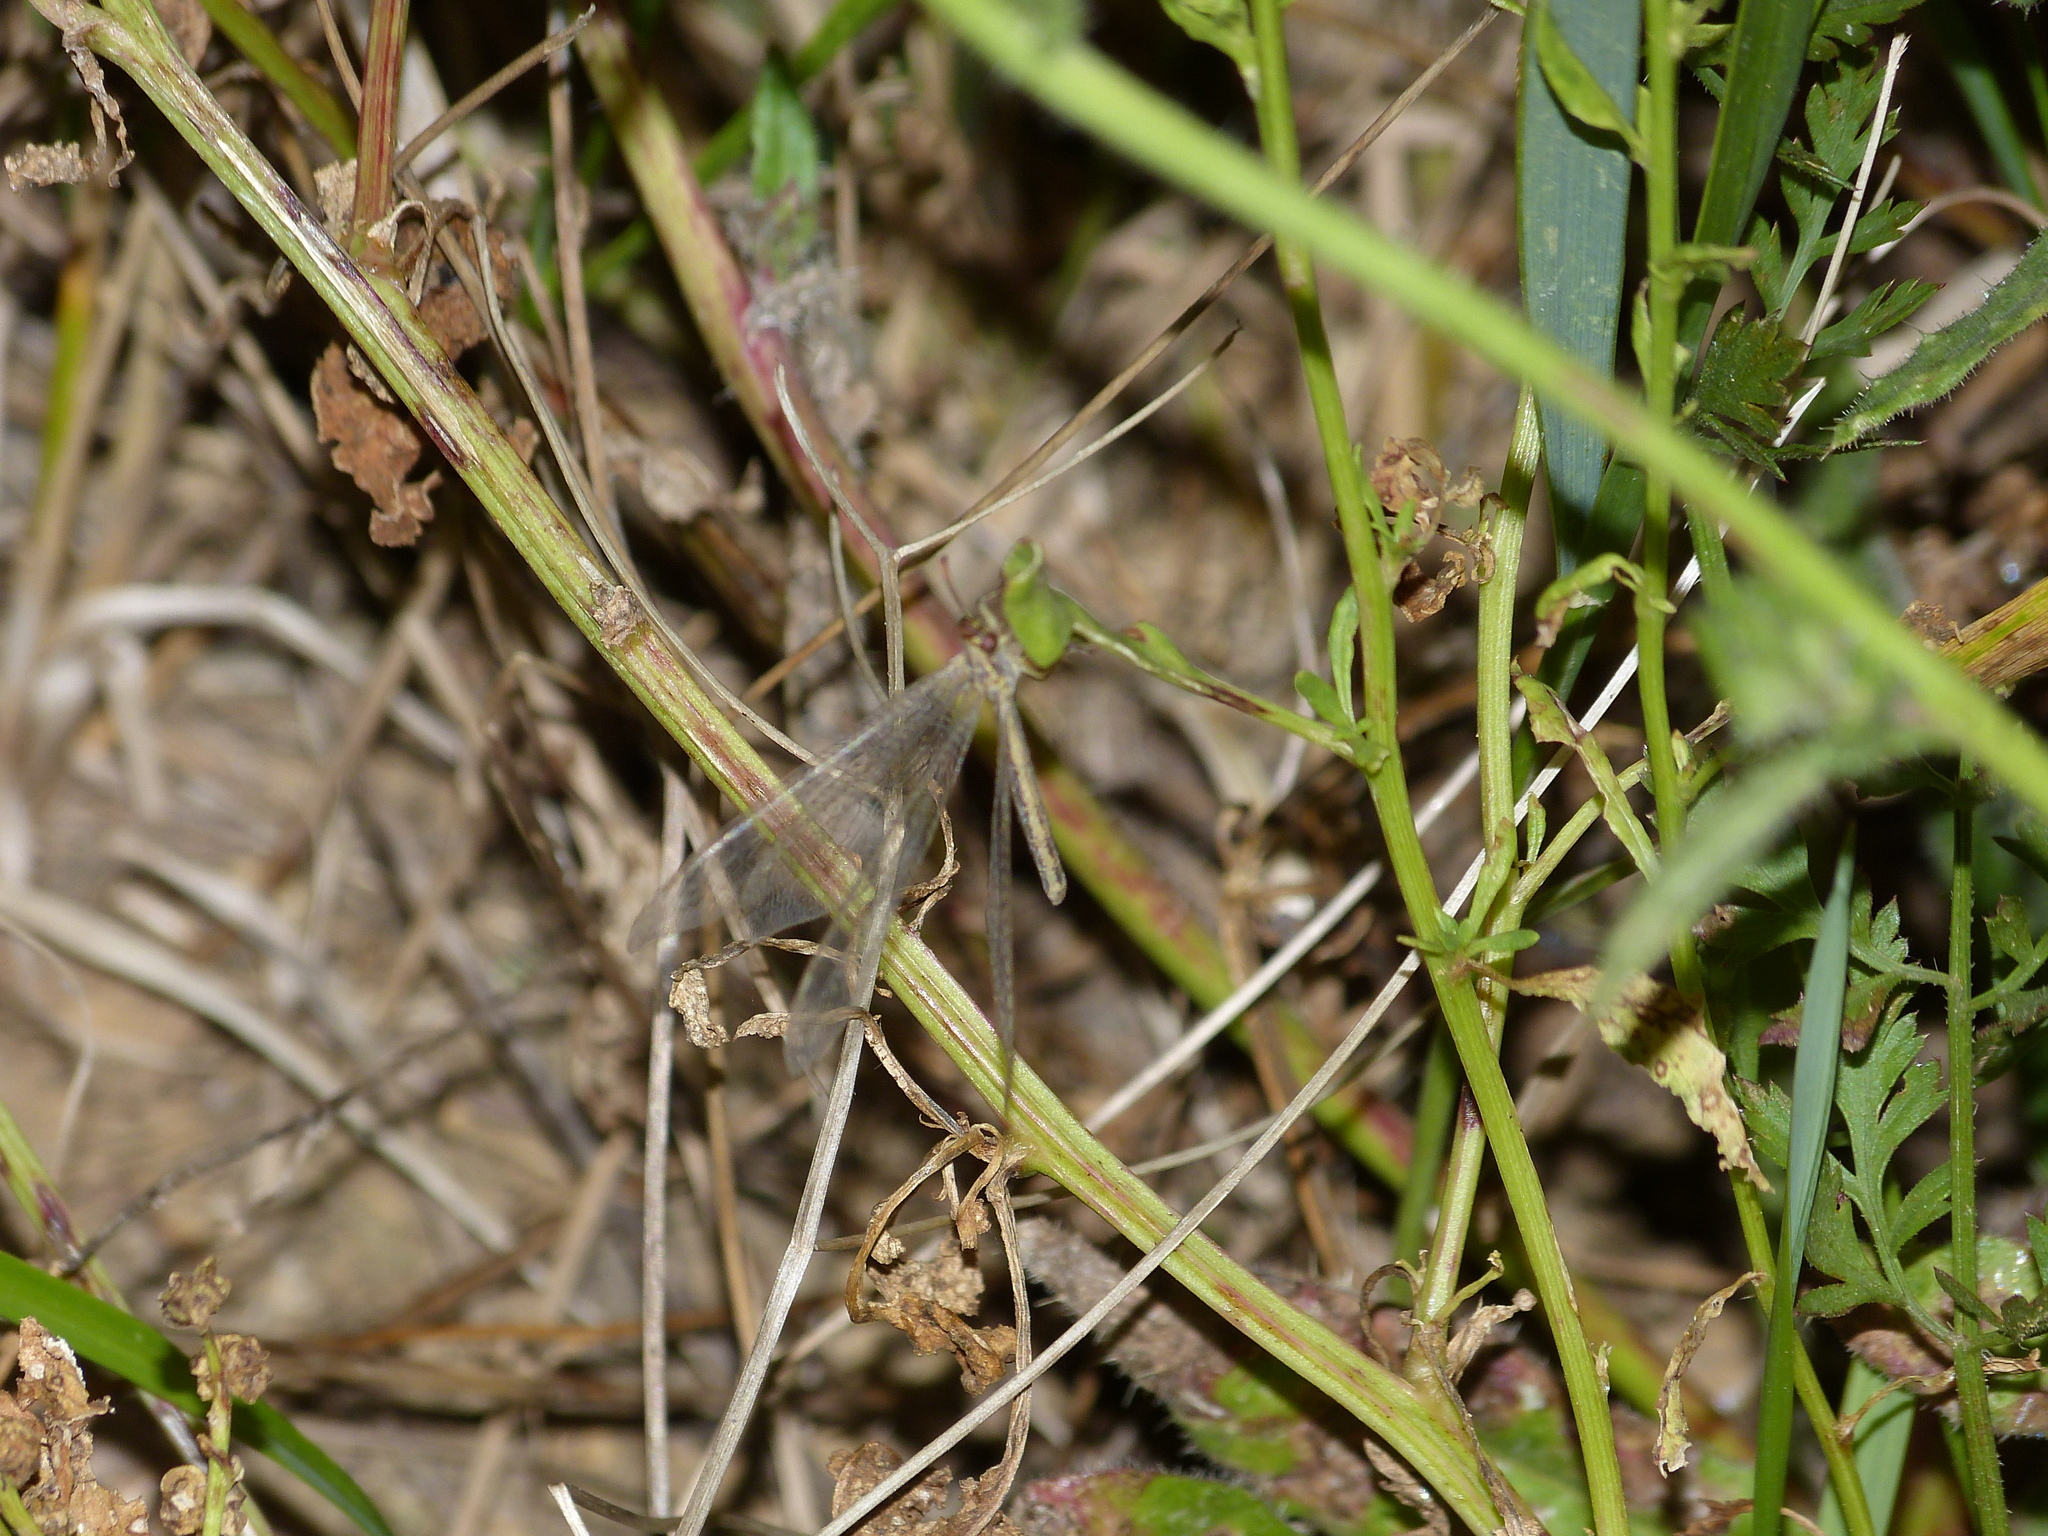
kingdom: Animalia
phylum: Arthropoda
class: Insecta
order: Neuroptera
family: Myrmeleontidae
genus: Macronemurus
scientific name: Macronemurus appendiculatus
